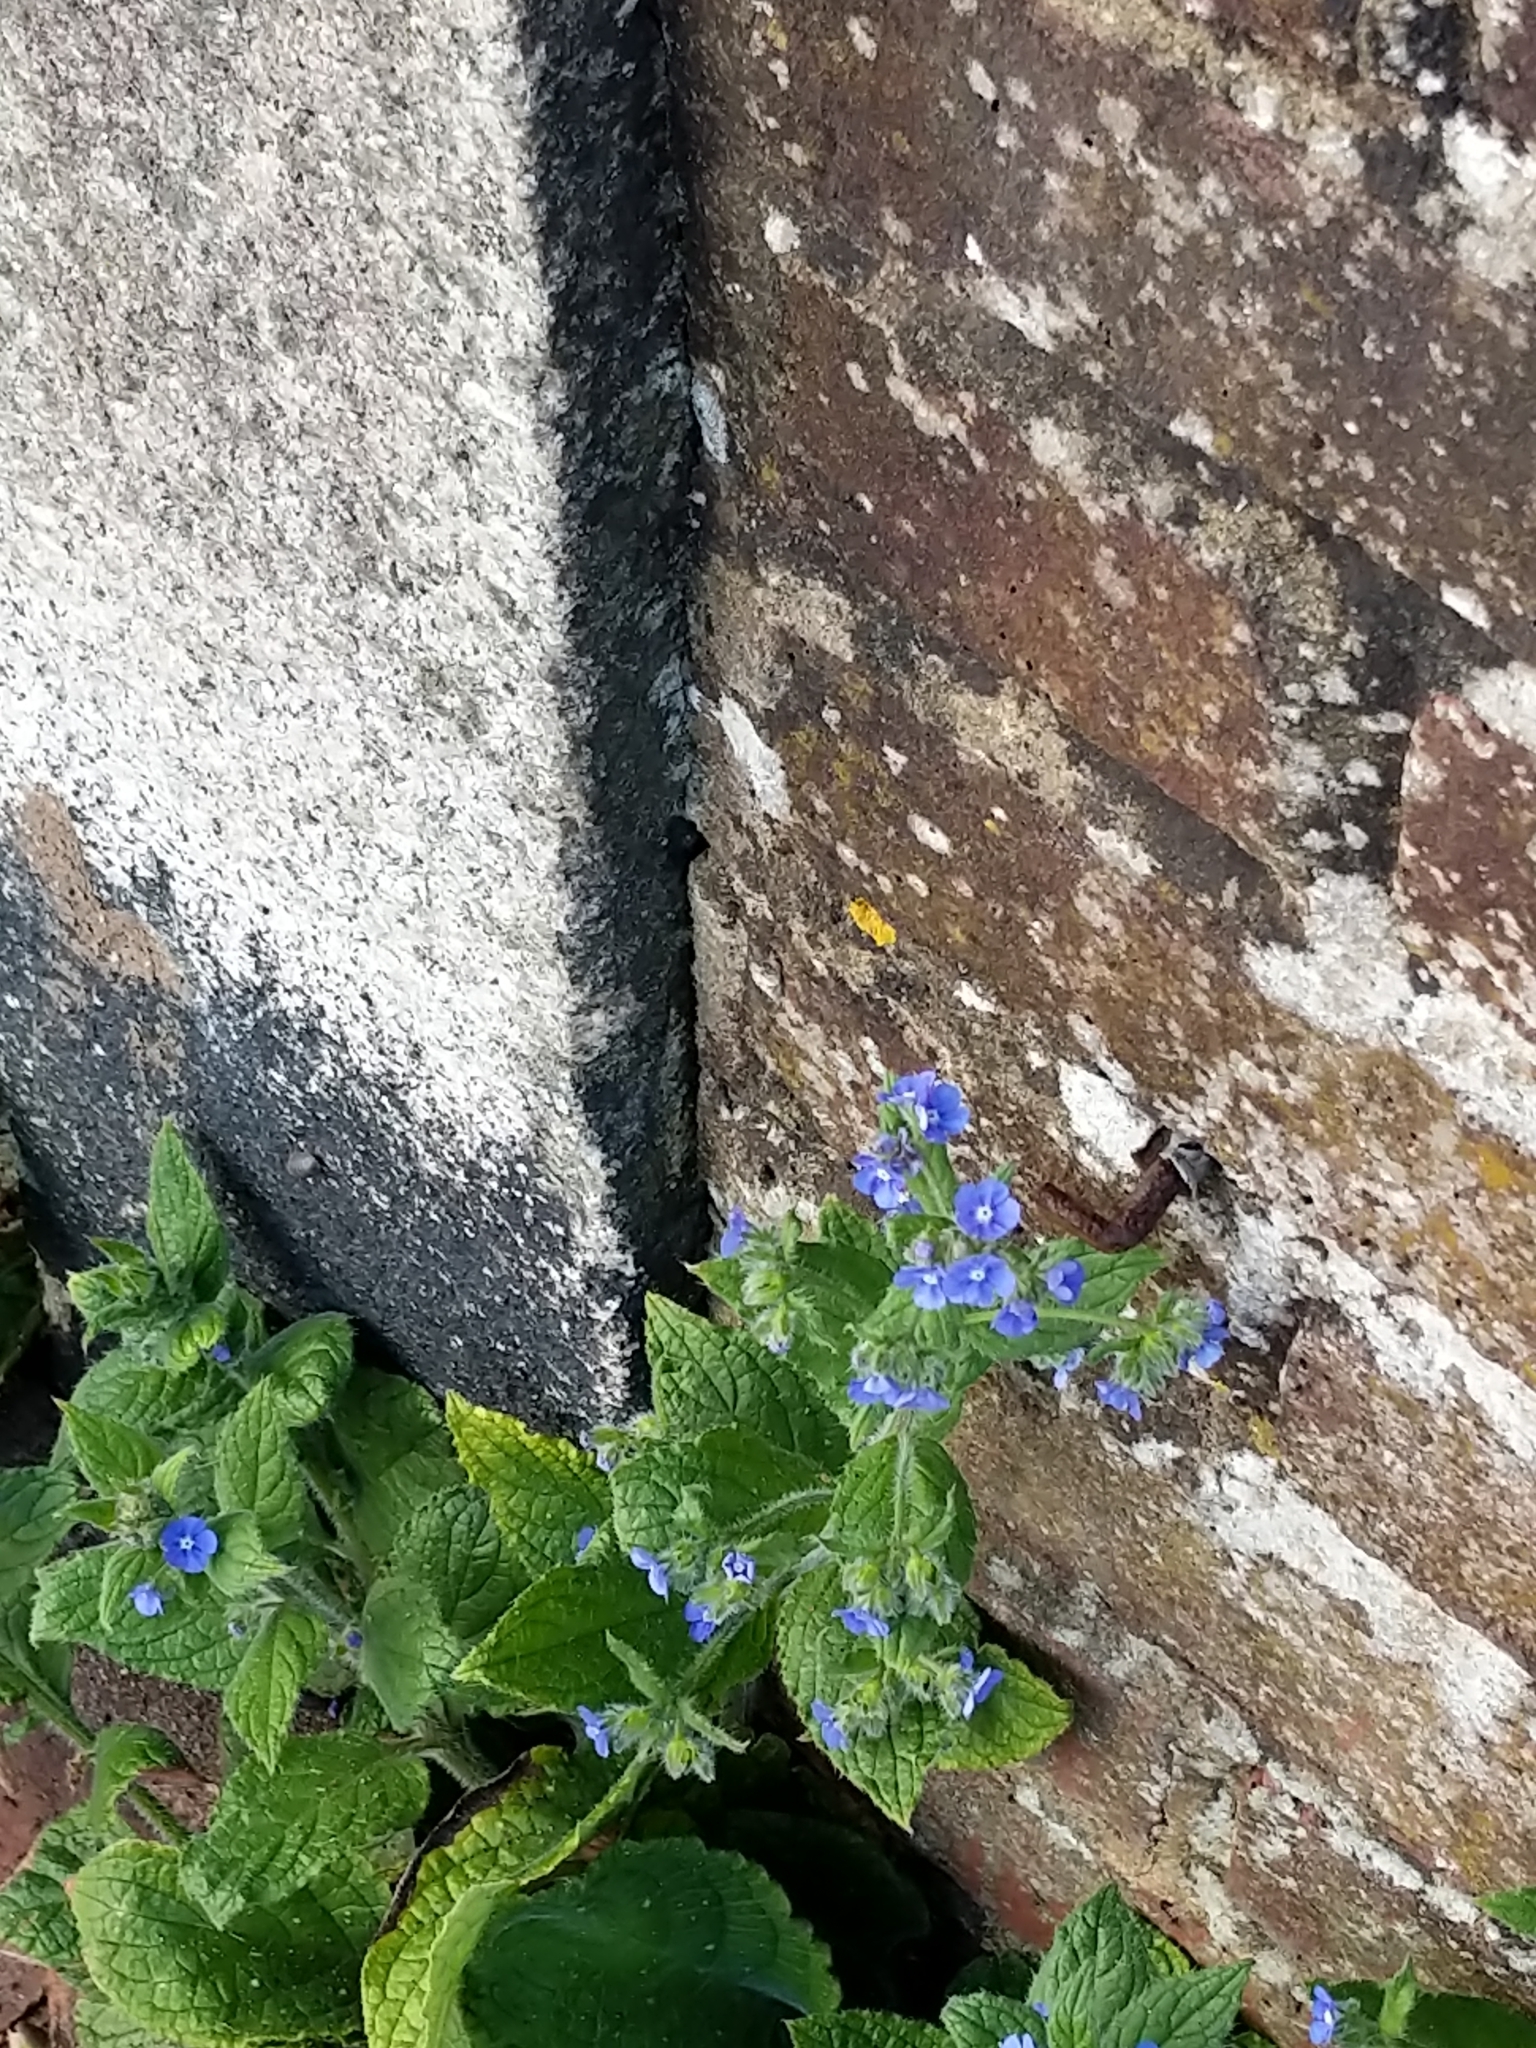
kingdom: Plantae
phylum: Tracheophyta
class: Magnoliopsida
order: Boraginales
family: Boraginaceae
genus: Pentaglottis
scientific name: Pentaglottis sempervirens
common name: Green alkanet
